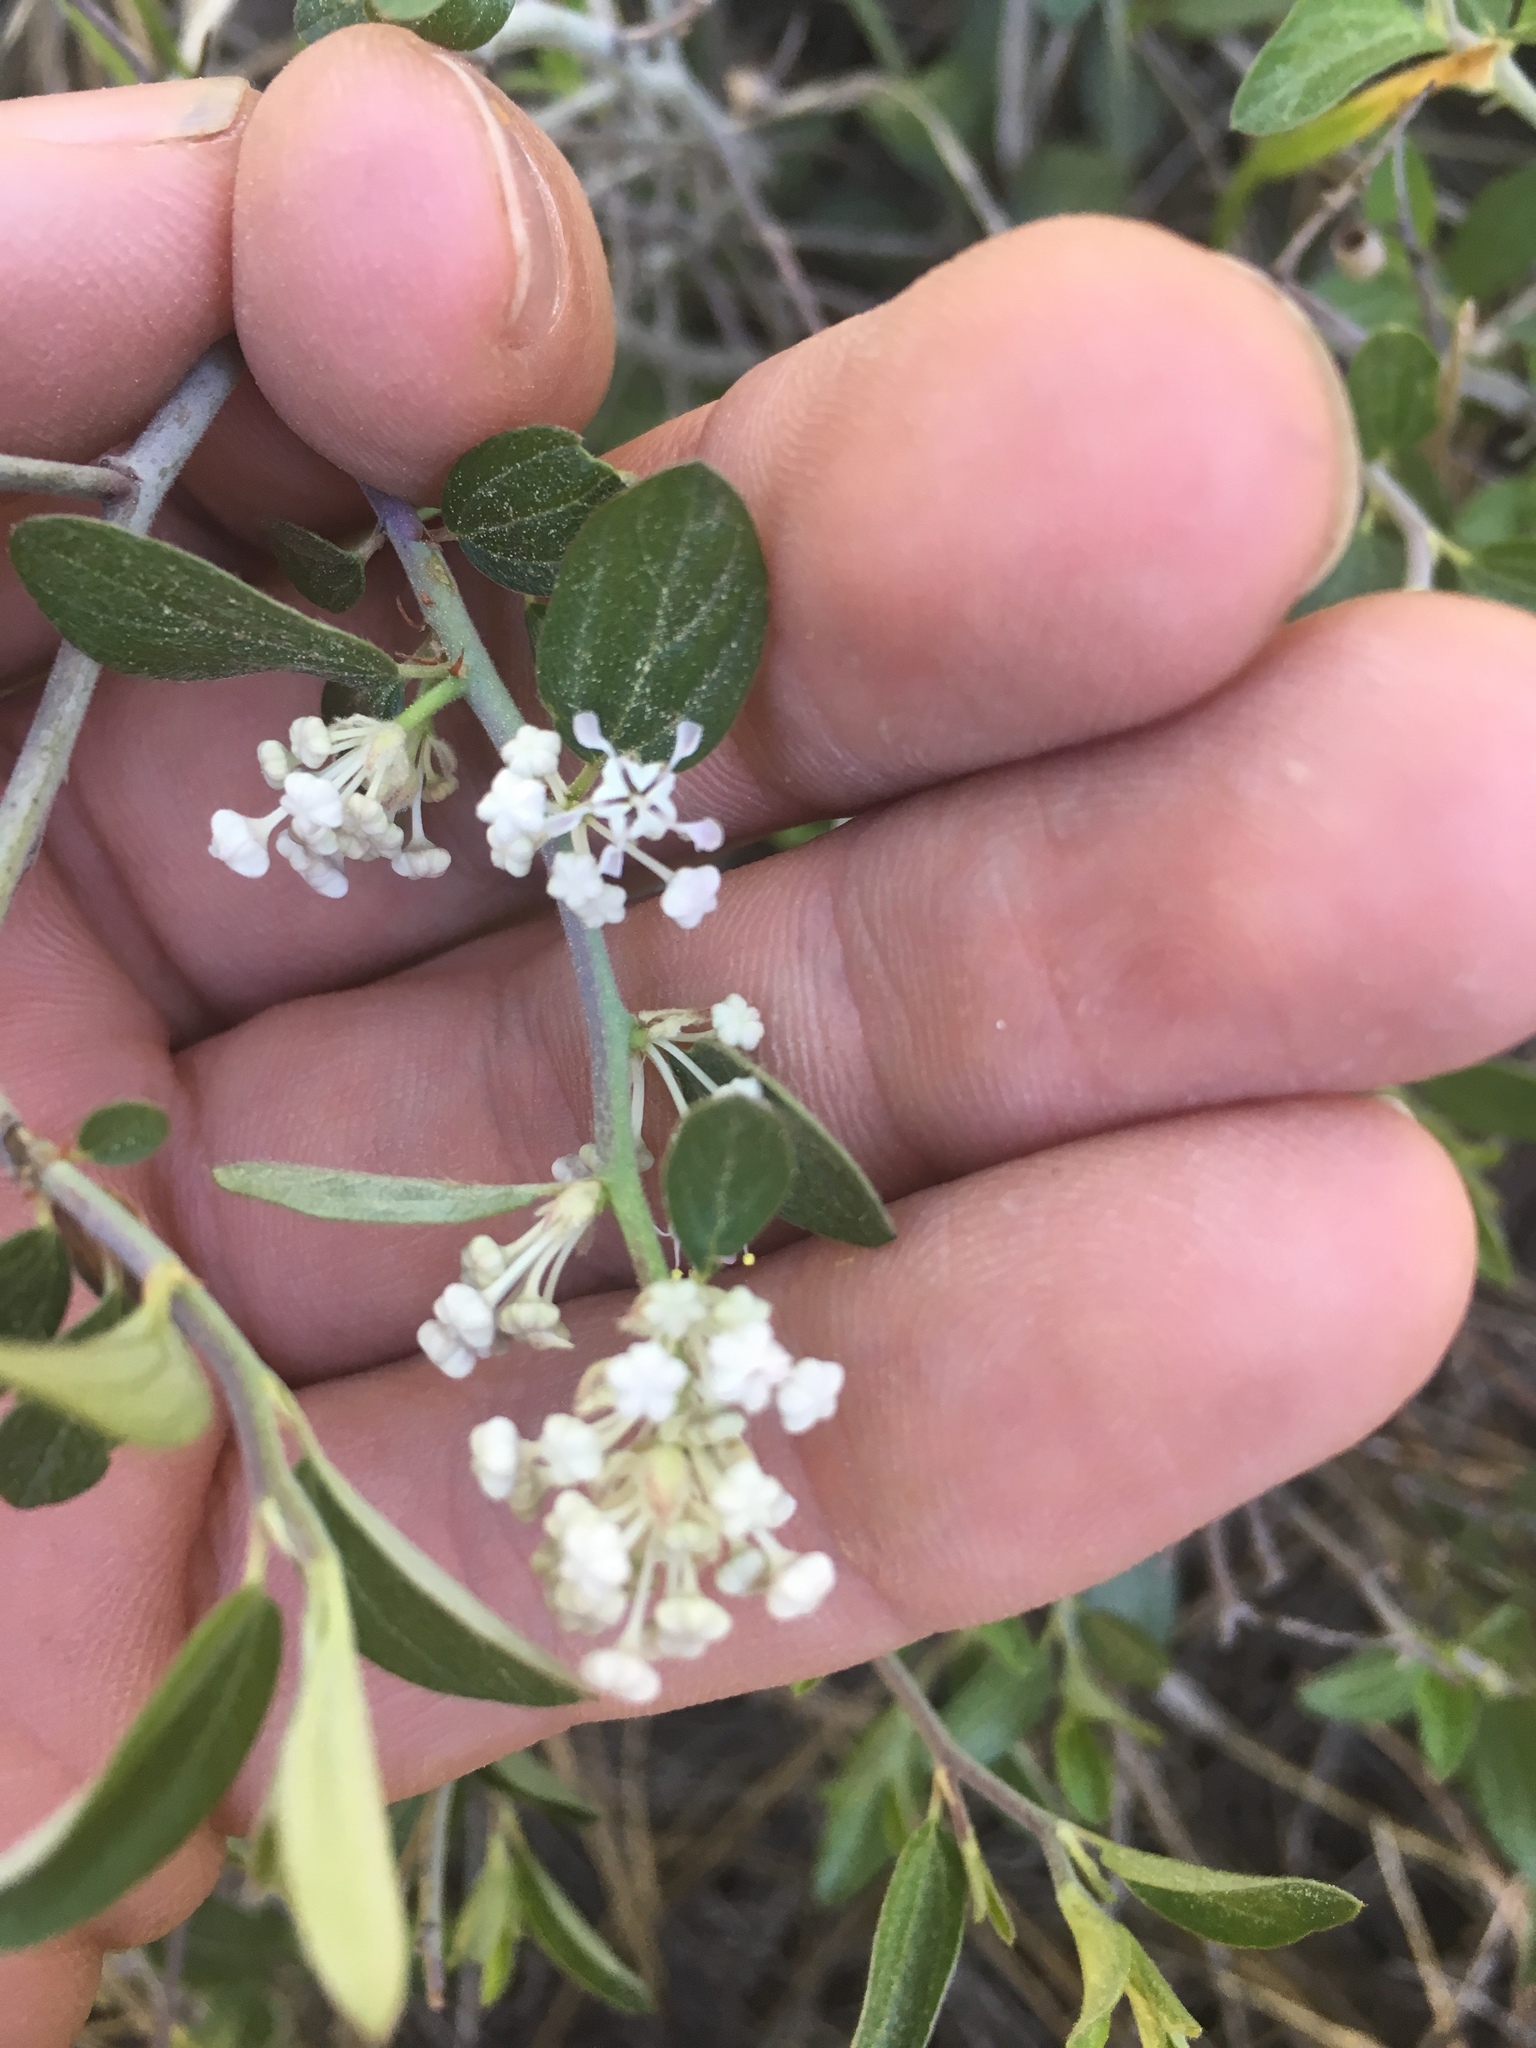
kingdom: Plantae
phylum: Tracheophyta
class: Magnoliopsida
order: Rosales
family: Rhamnaceae
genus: Ceanothus
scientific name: Ceanothus fendleri
